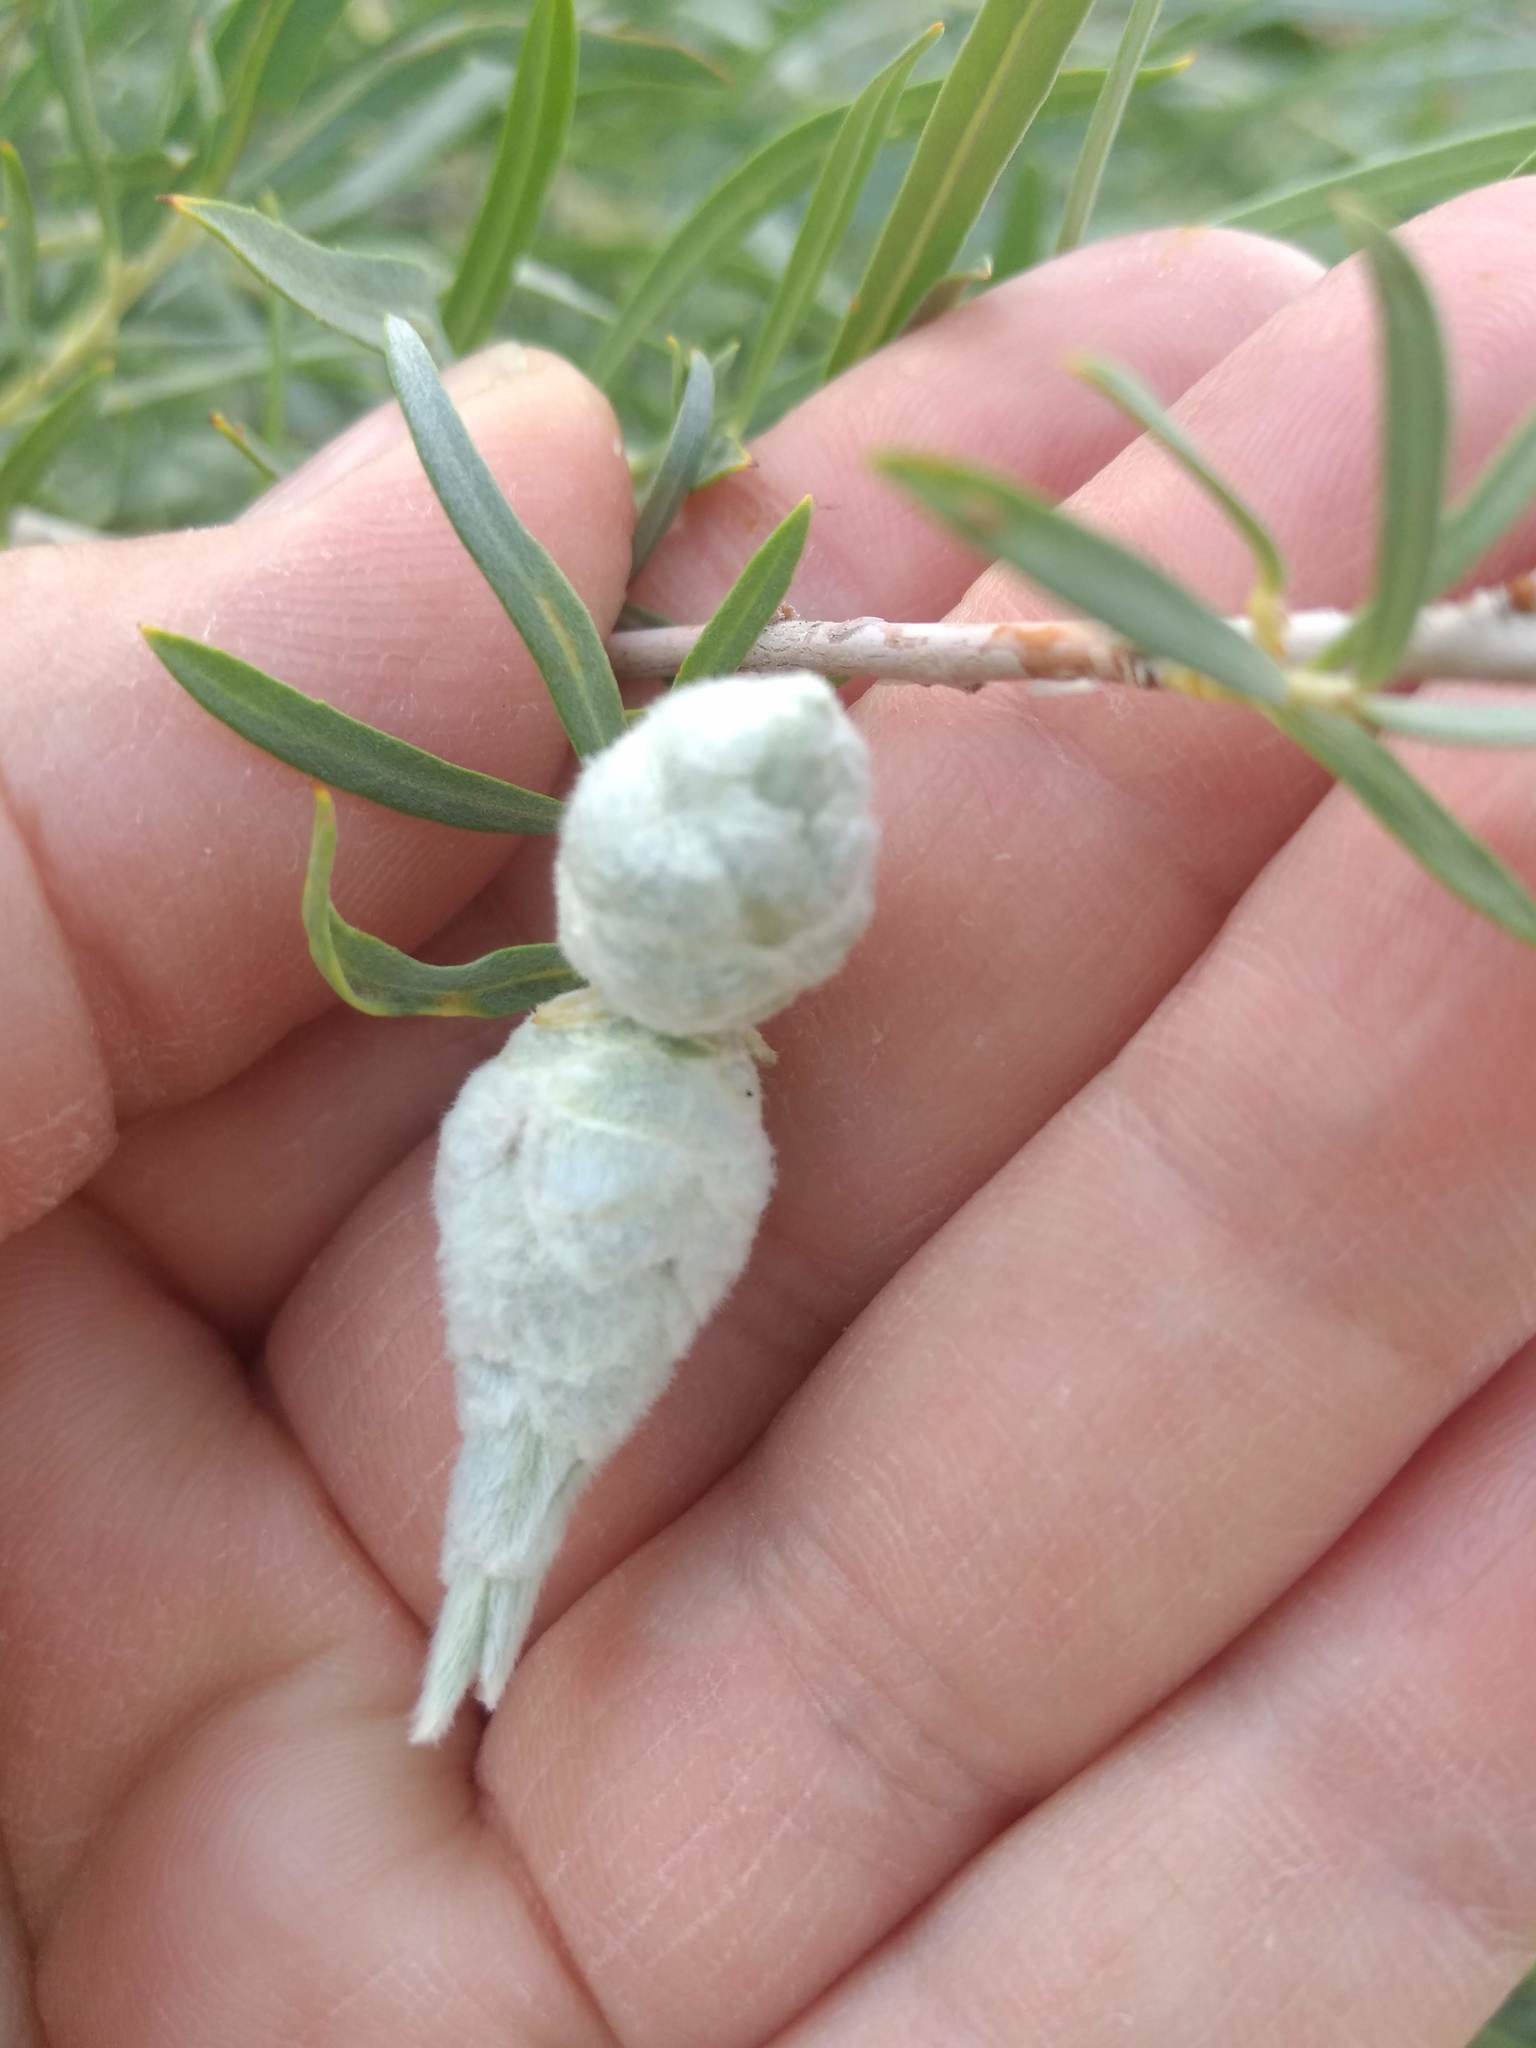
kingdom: Animalia
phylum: Arthropoda
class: Insecta
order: Diptera
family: Cecidomyiidae
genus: Rabdophaga
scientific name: Rabdophaga strobiloides
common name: Willow pinecone gall midge
